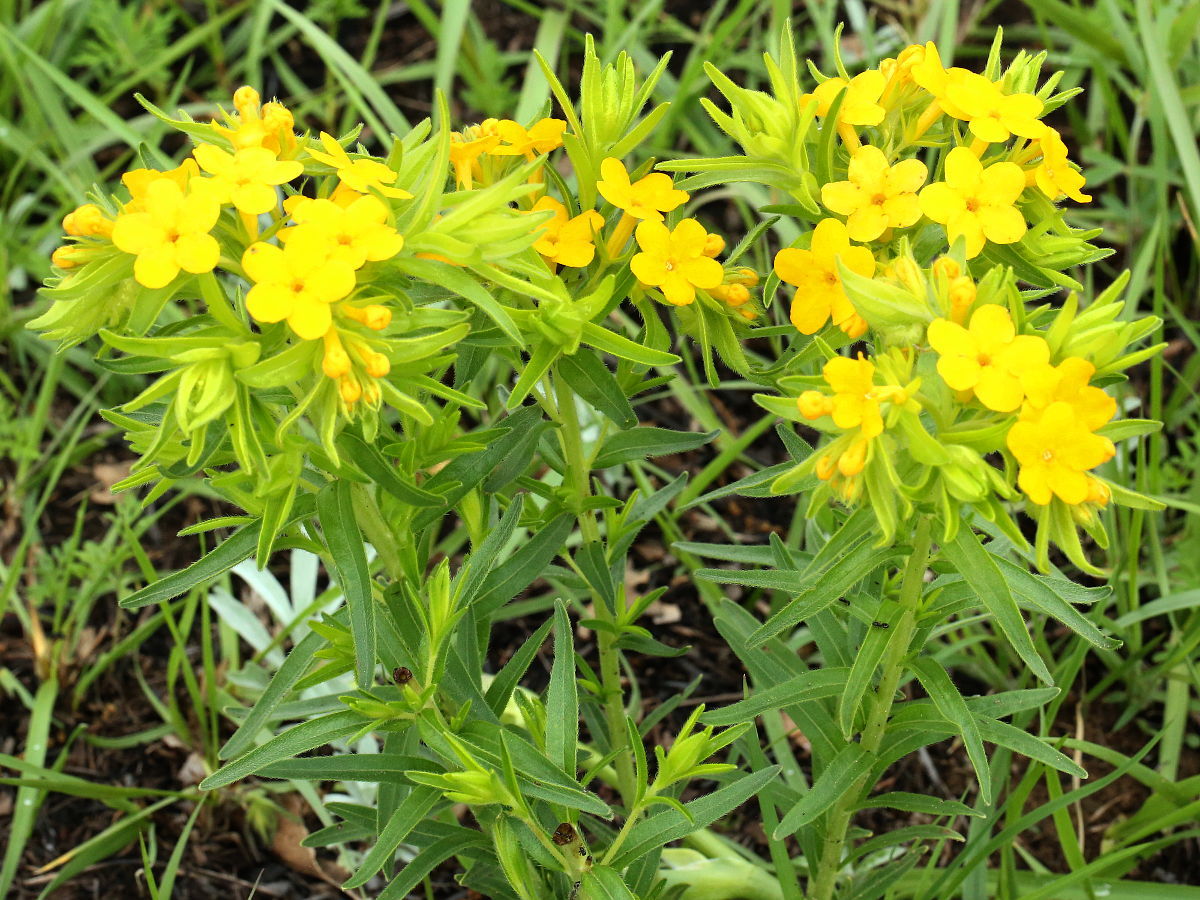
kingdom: Plantae
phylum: Tracheophyta
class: Magnoliopsida
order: Boraginales
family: Boraginaceae
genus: Lithospermum
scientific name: Lithospermum caroliniense
